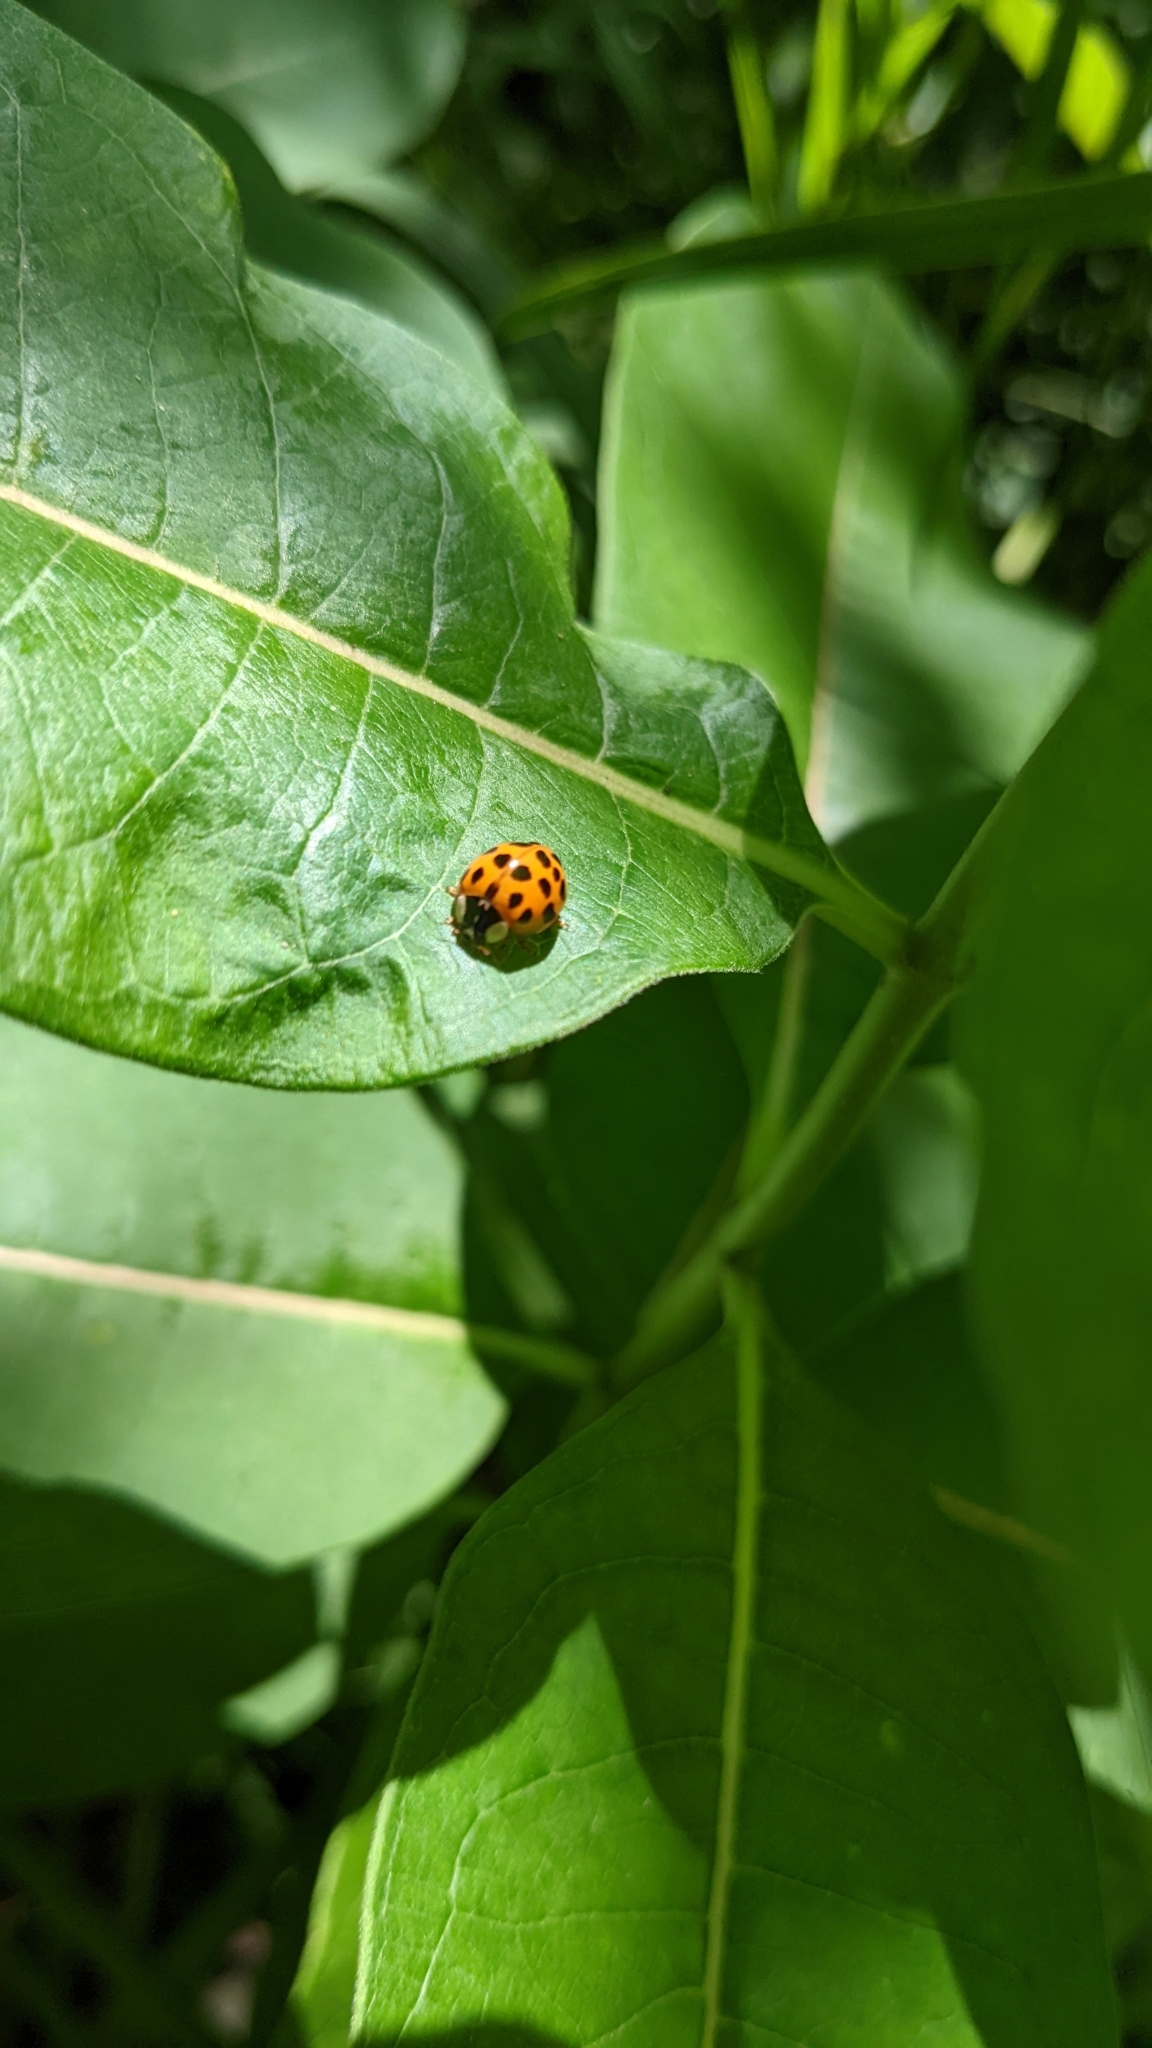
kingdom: Animalia
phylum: Arthropoda
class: Insecta
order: Coleoptera
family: Coccinellidae
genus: Harmonia
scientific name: Harmonia axyridis
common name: Harlequin ladybird
